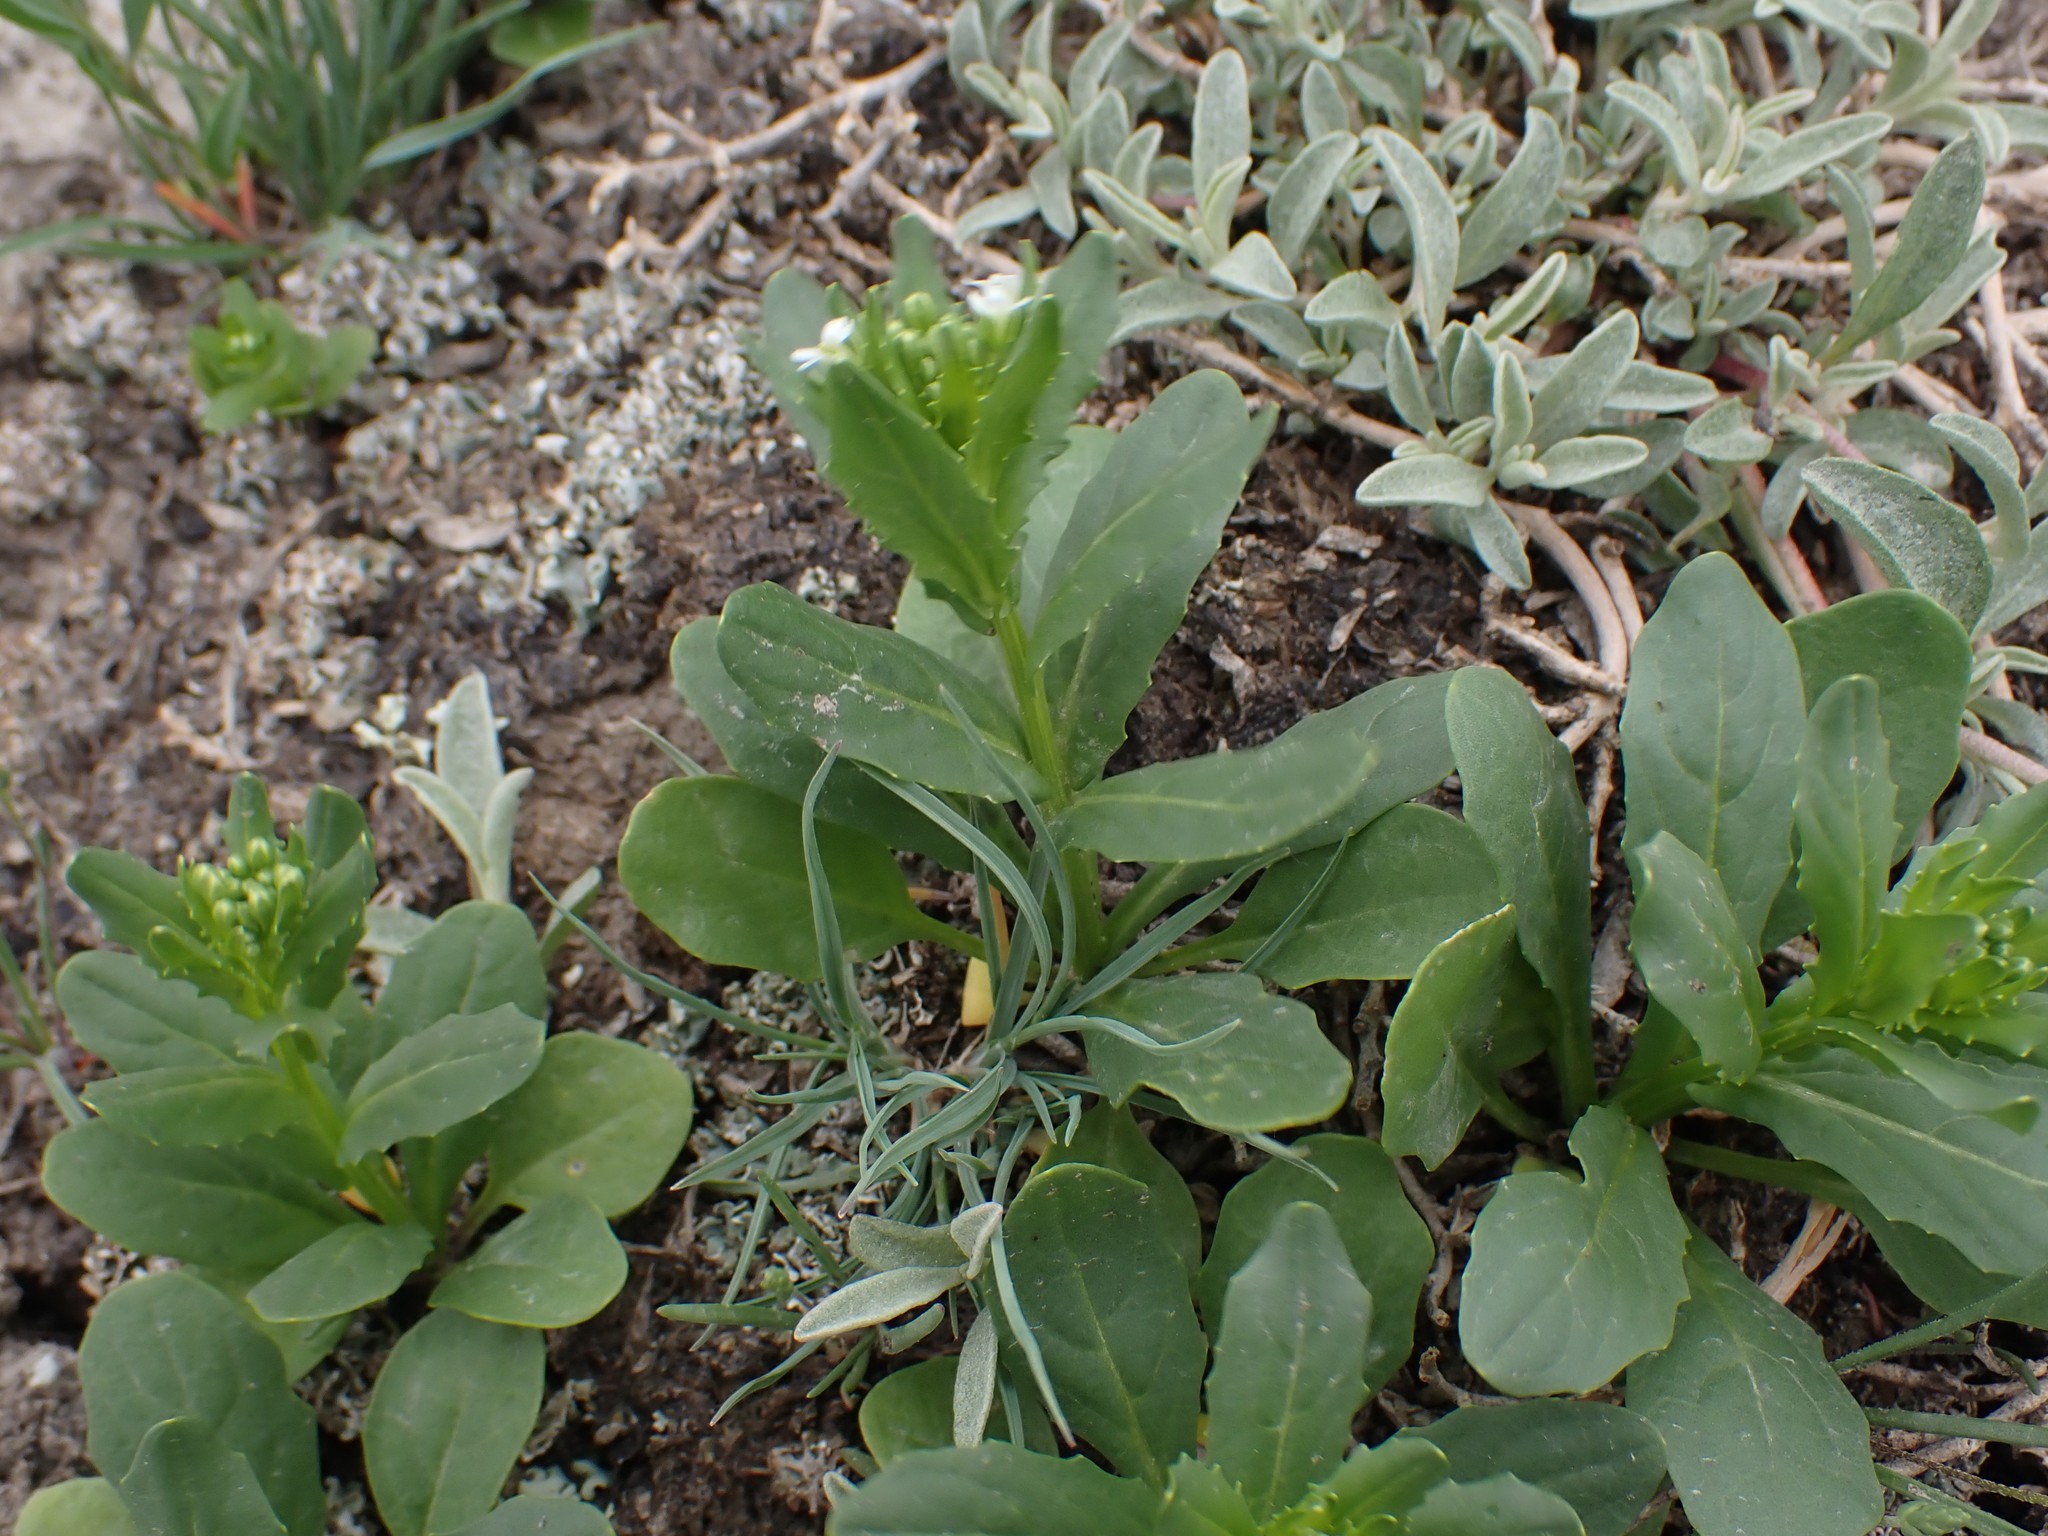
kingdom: Plantae
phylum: Tracheophyta
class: Magnoliopsida
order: Brassicales
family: Brassicaceae
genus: Thlaspi
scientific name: Thlaspi arvense
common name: Field pennycress
